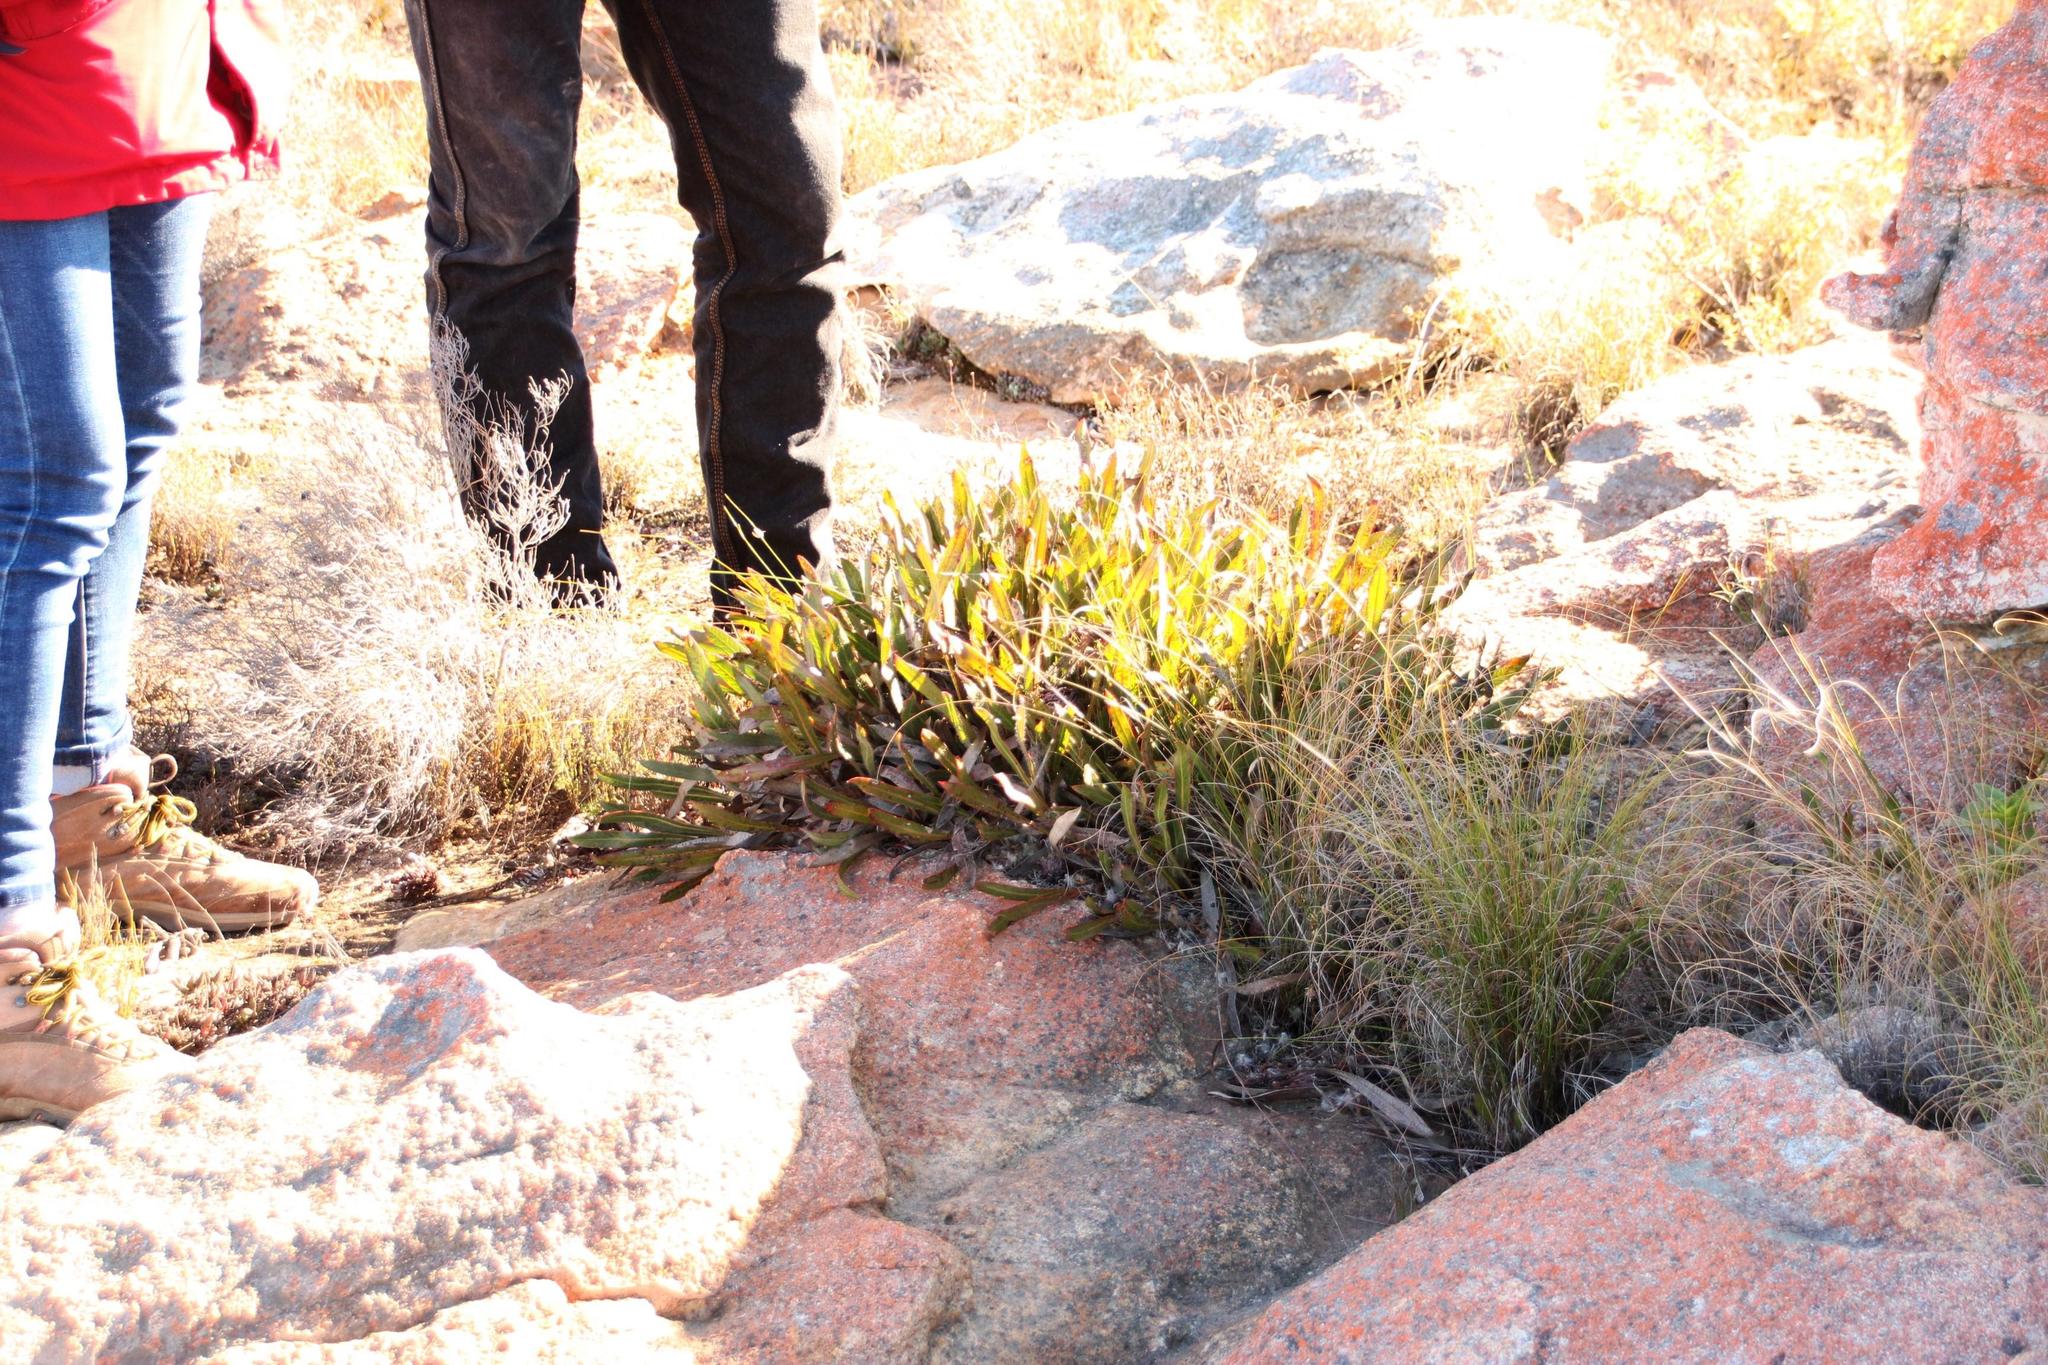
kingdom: Plantae
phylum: Tracheophyta
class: Magnoliopsida
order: Proteales
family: Proteaceae
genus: Protea
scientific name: Protea scolopendriifolia
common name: Harts-tongue-fern sugarbush
